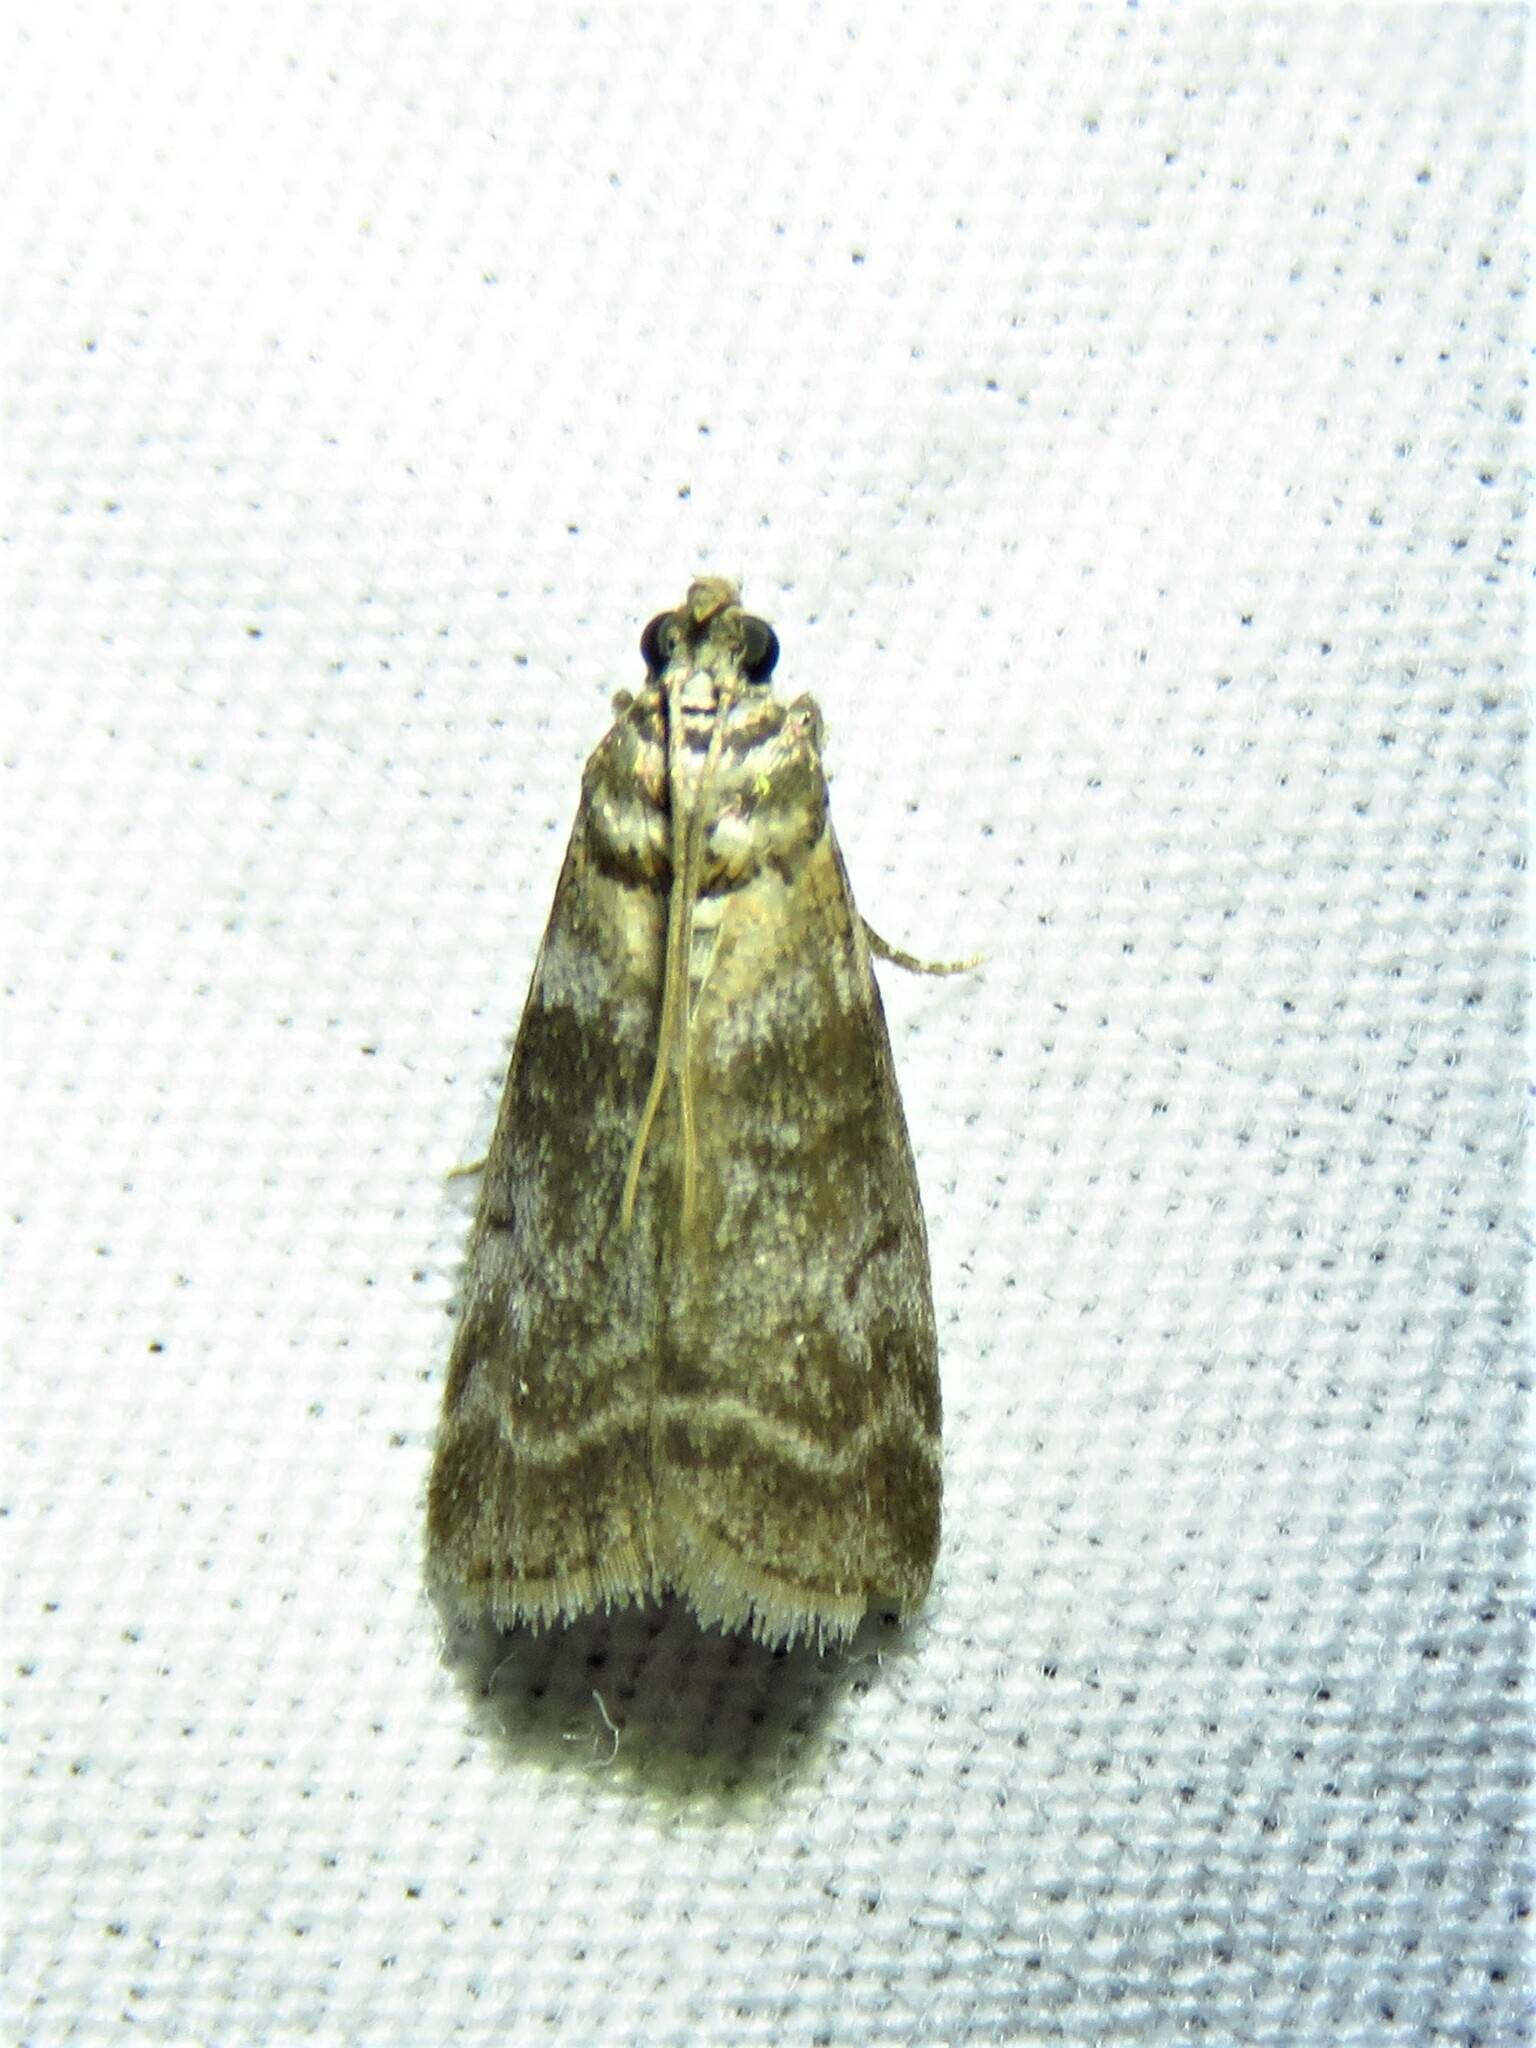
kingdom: Animalia
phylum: Arthropoda
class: Insecta
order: Lepidoptera
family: Pyralidae
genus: Sciota
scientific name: Sciota uvinella
